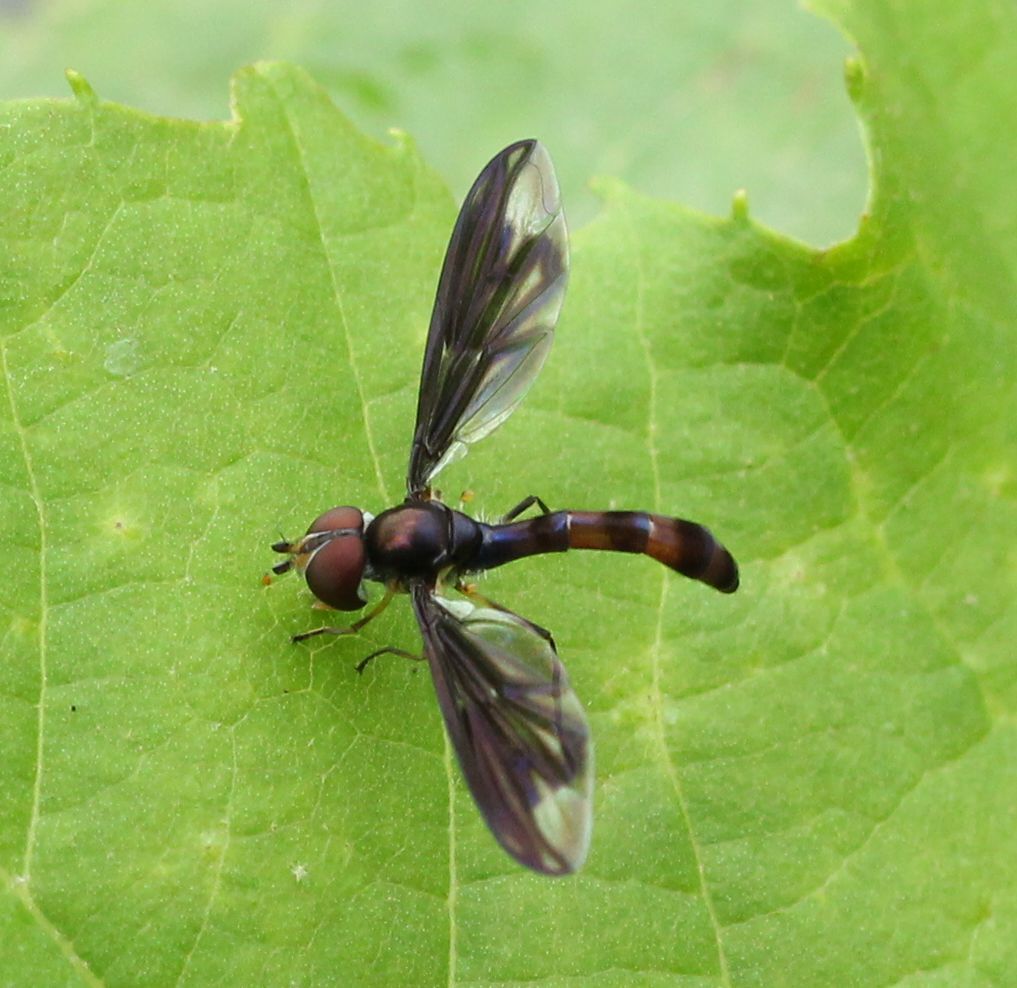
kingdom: Animalia
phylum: Arthropoda
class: Insecta
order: Diptera
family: Syrphidae
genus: Ocyptamus
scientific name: Ocyptamus fuscipennis
